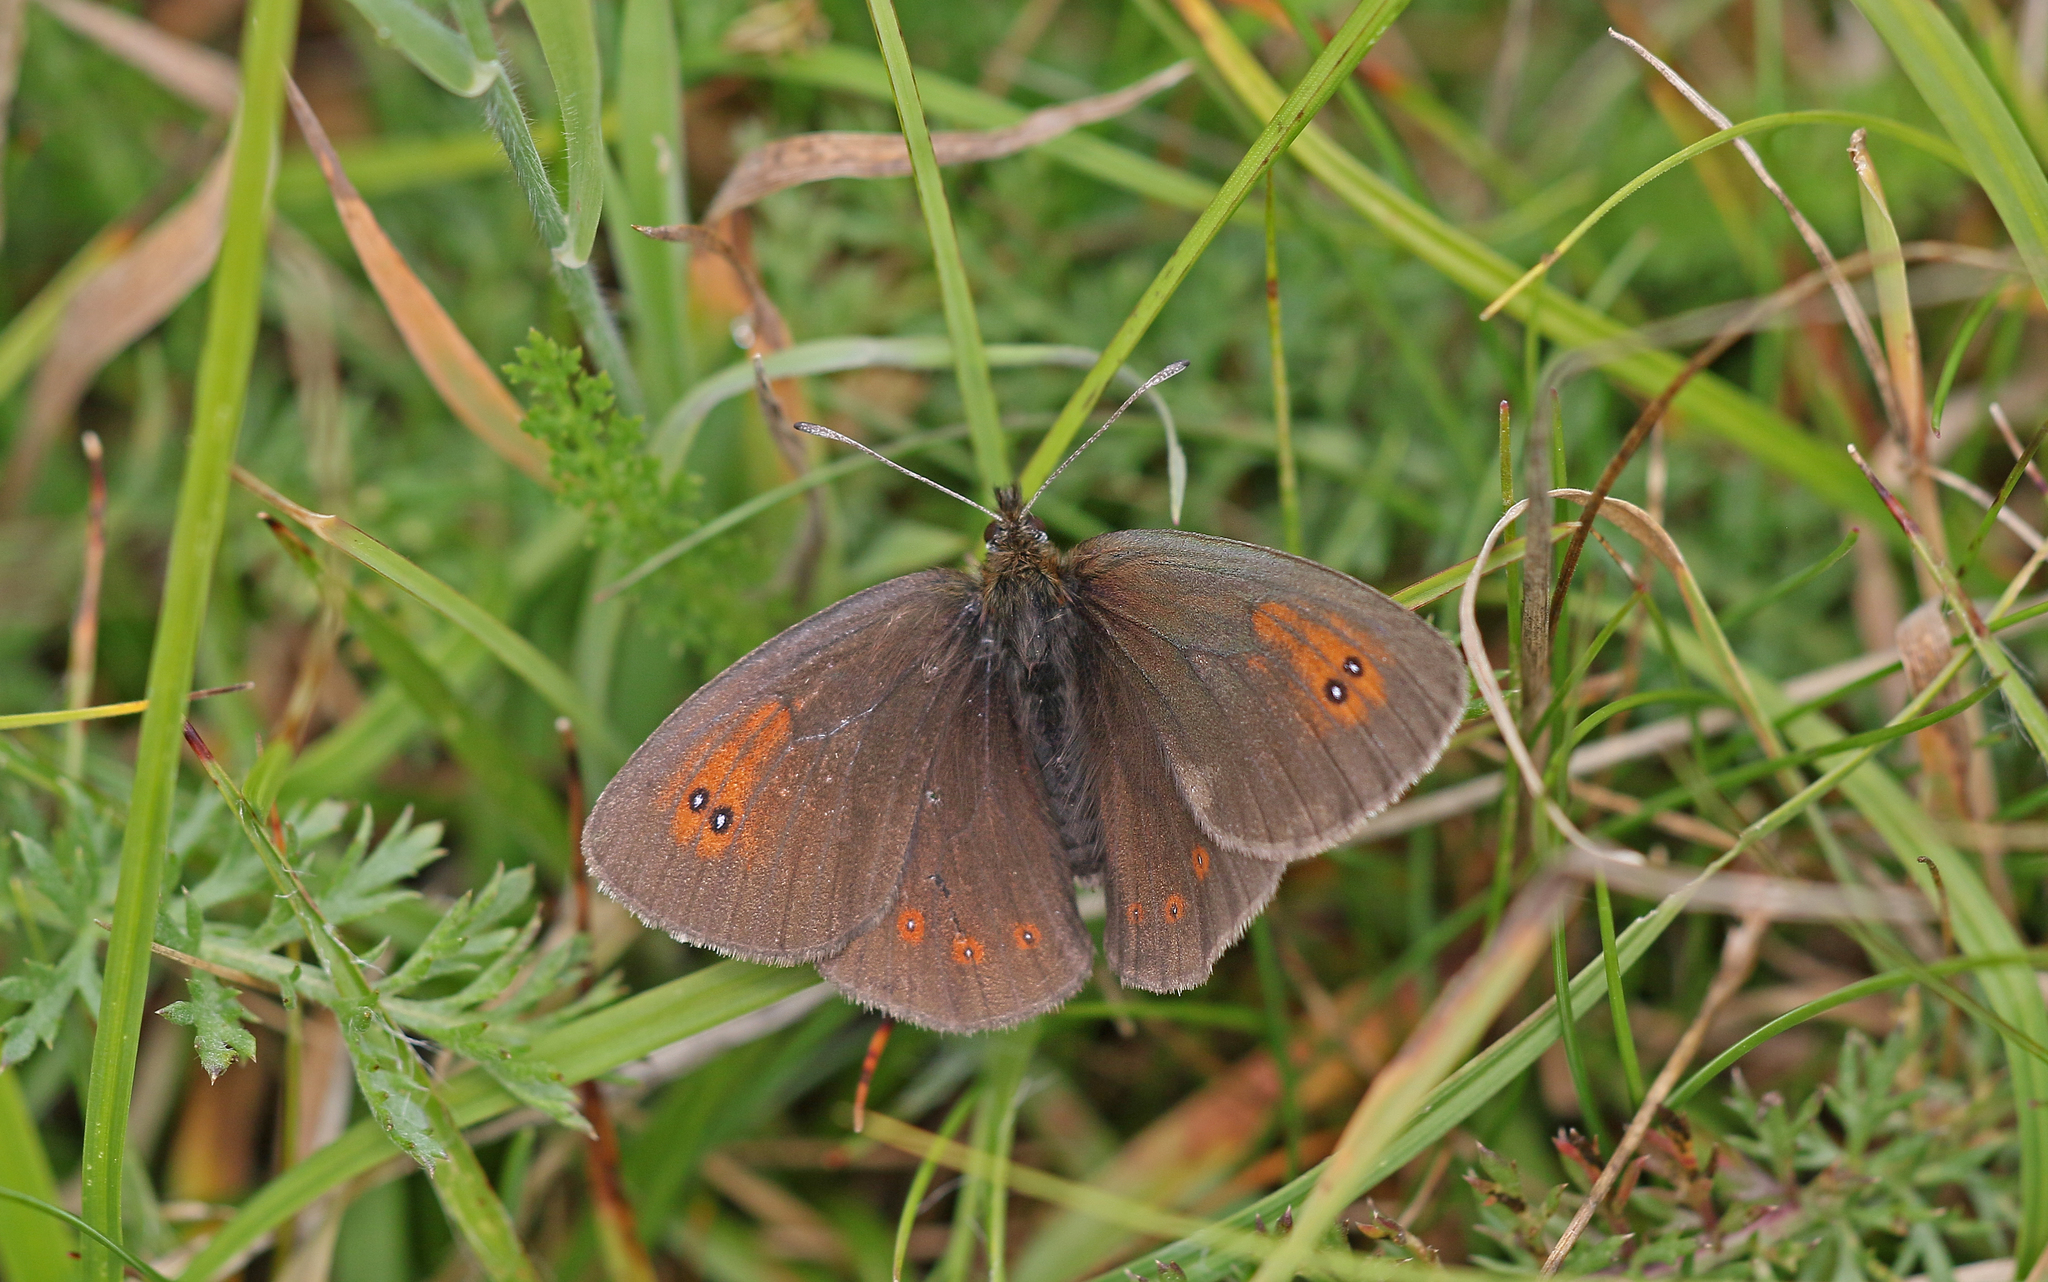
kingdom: Animalia
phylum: Arthropoda
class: Insecta
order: Lepidoptera
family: Nymphalidae
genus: Erebia
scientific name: Erebia tyndarus
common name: Swiss brassy ringlet
